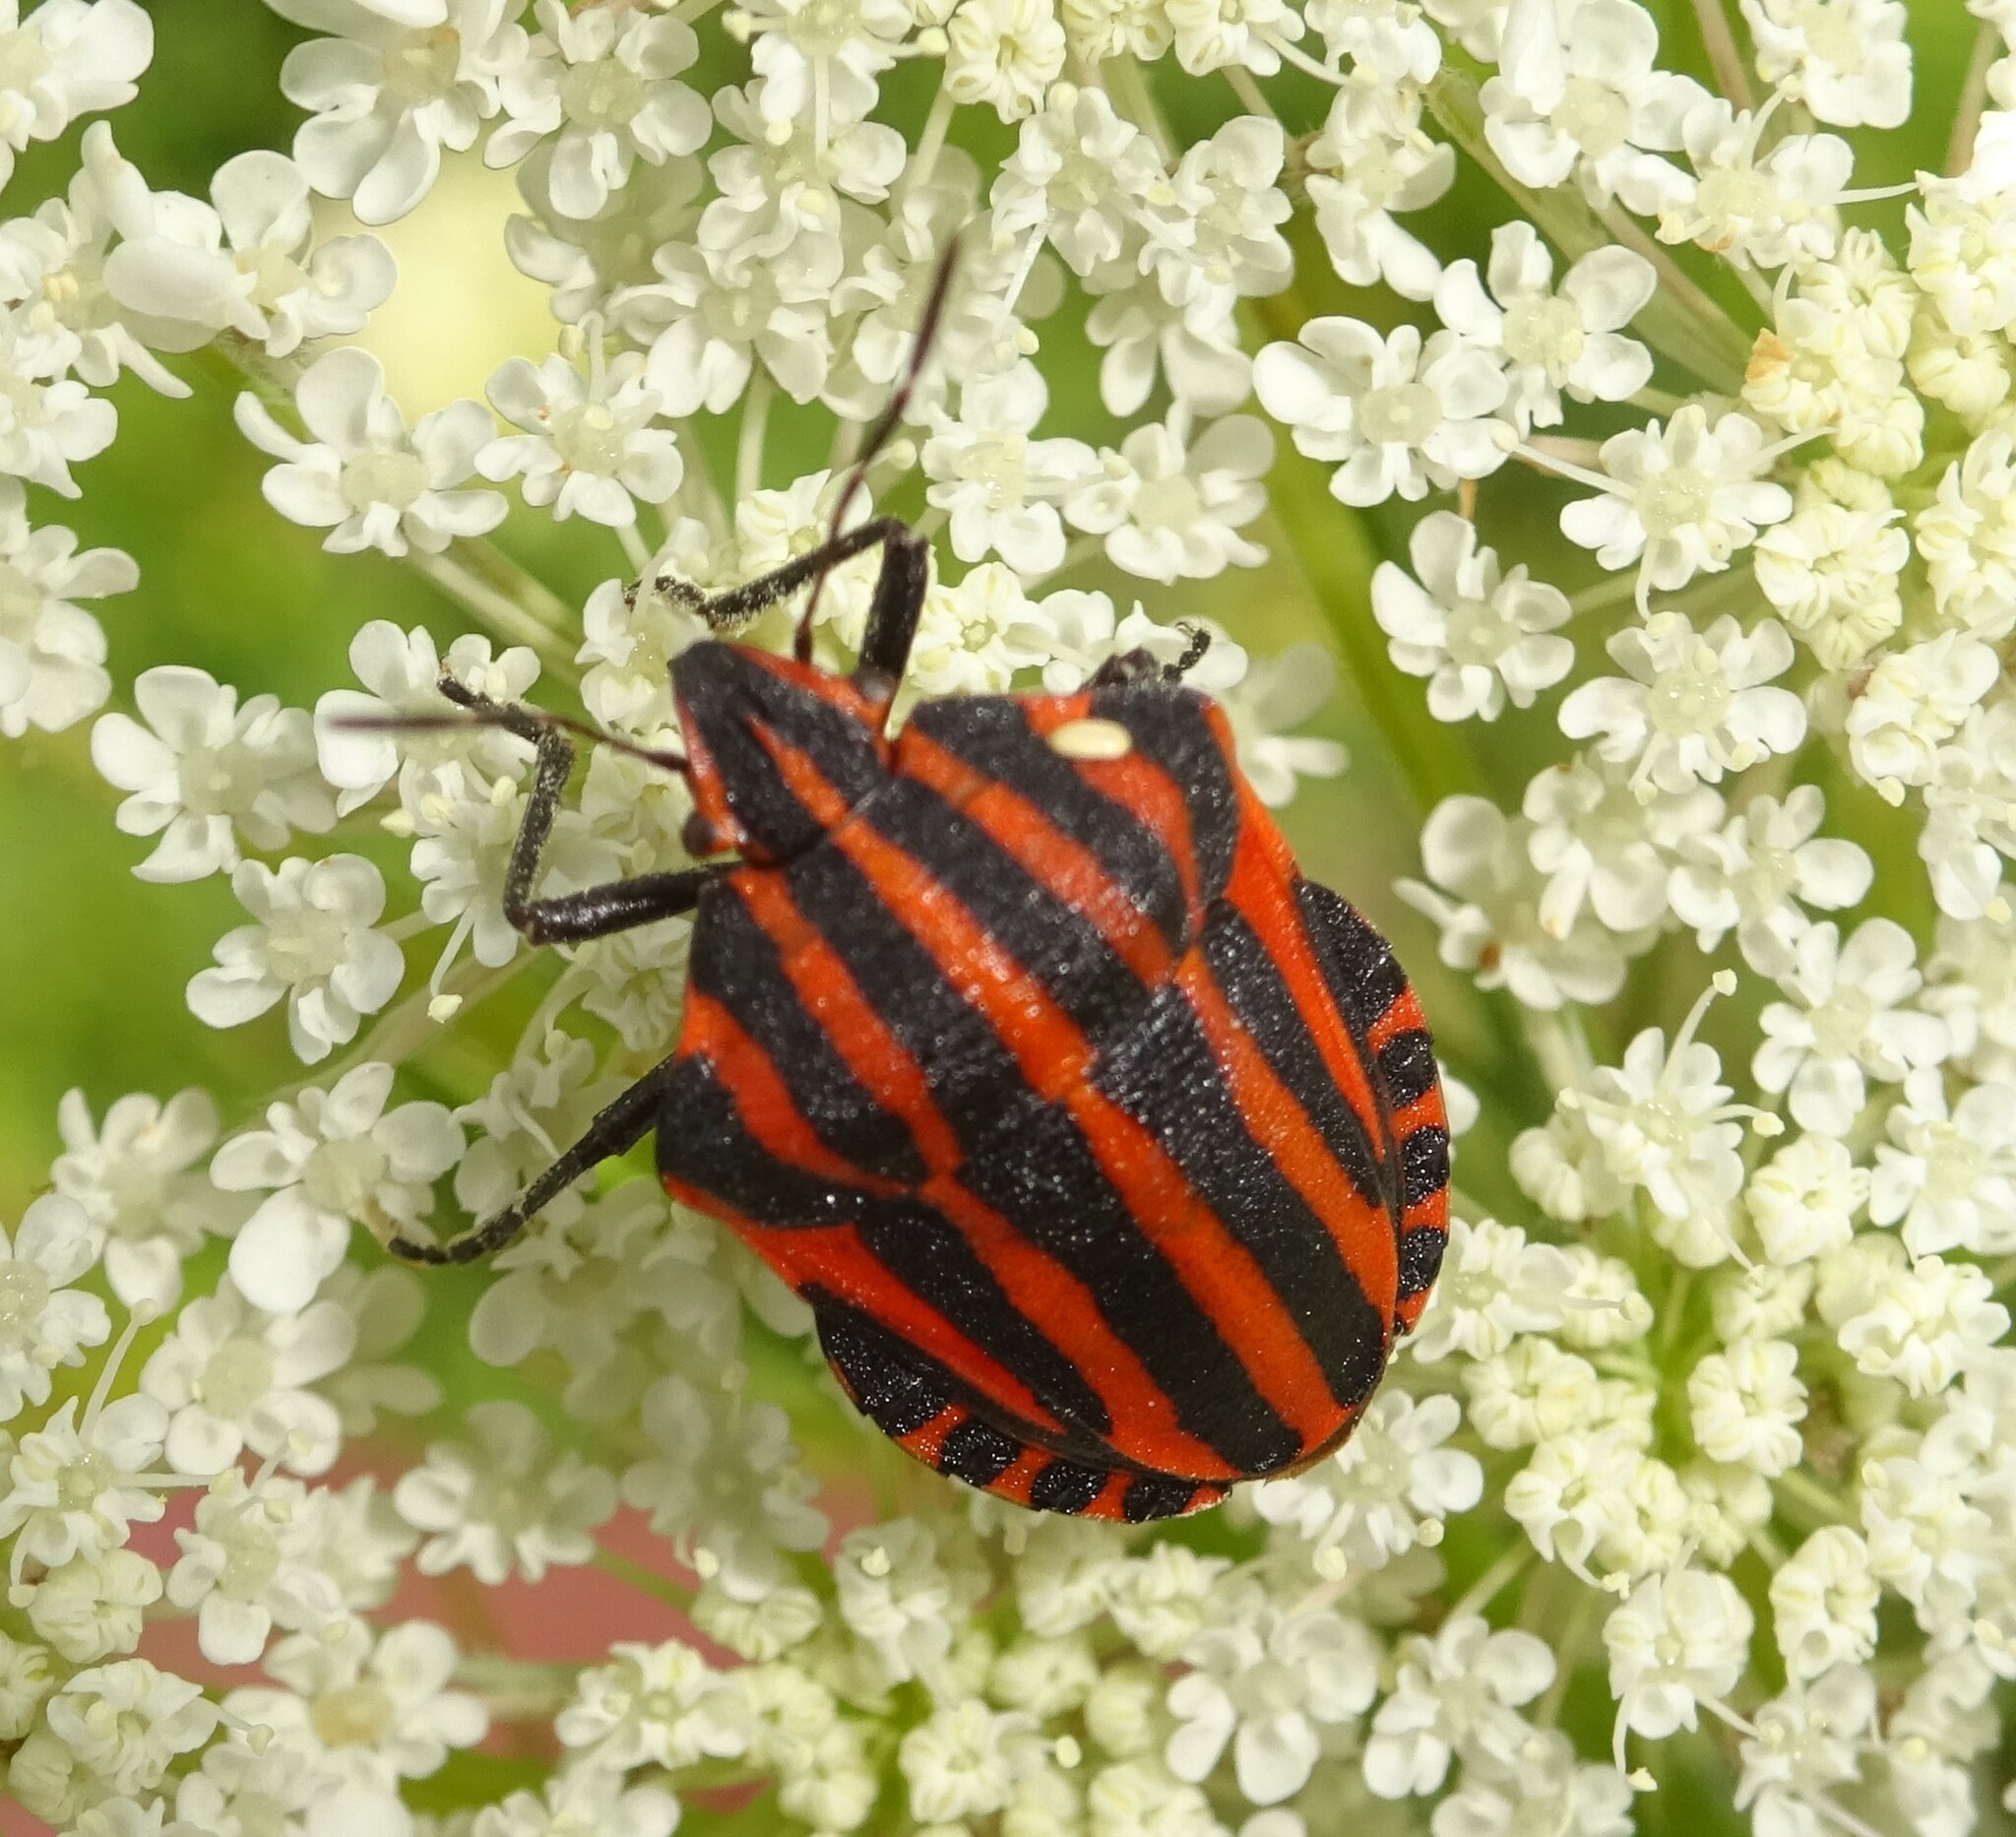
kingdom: Animalia
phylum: Arthropoda
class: Insecta
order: Hemiptera
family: Pentatomidae
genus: Graphosoma
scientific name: Graphosoma italicum
